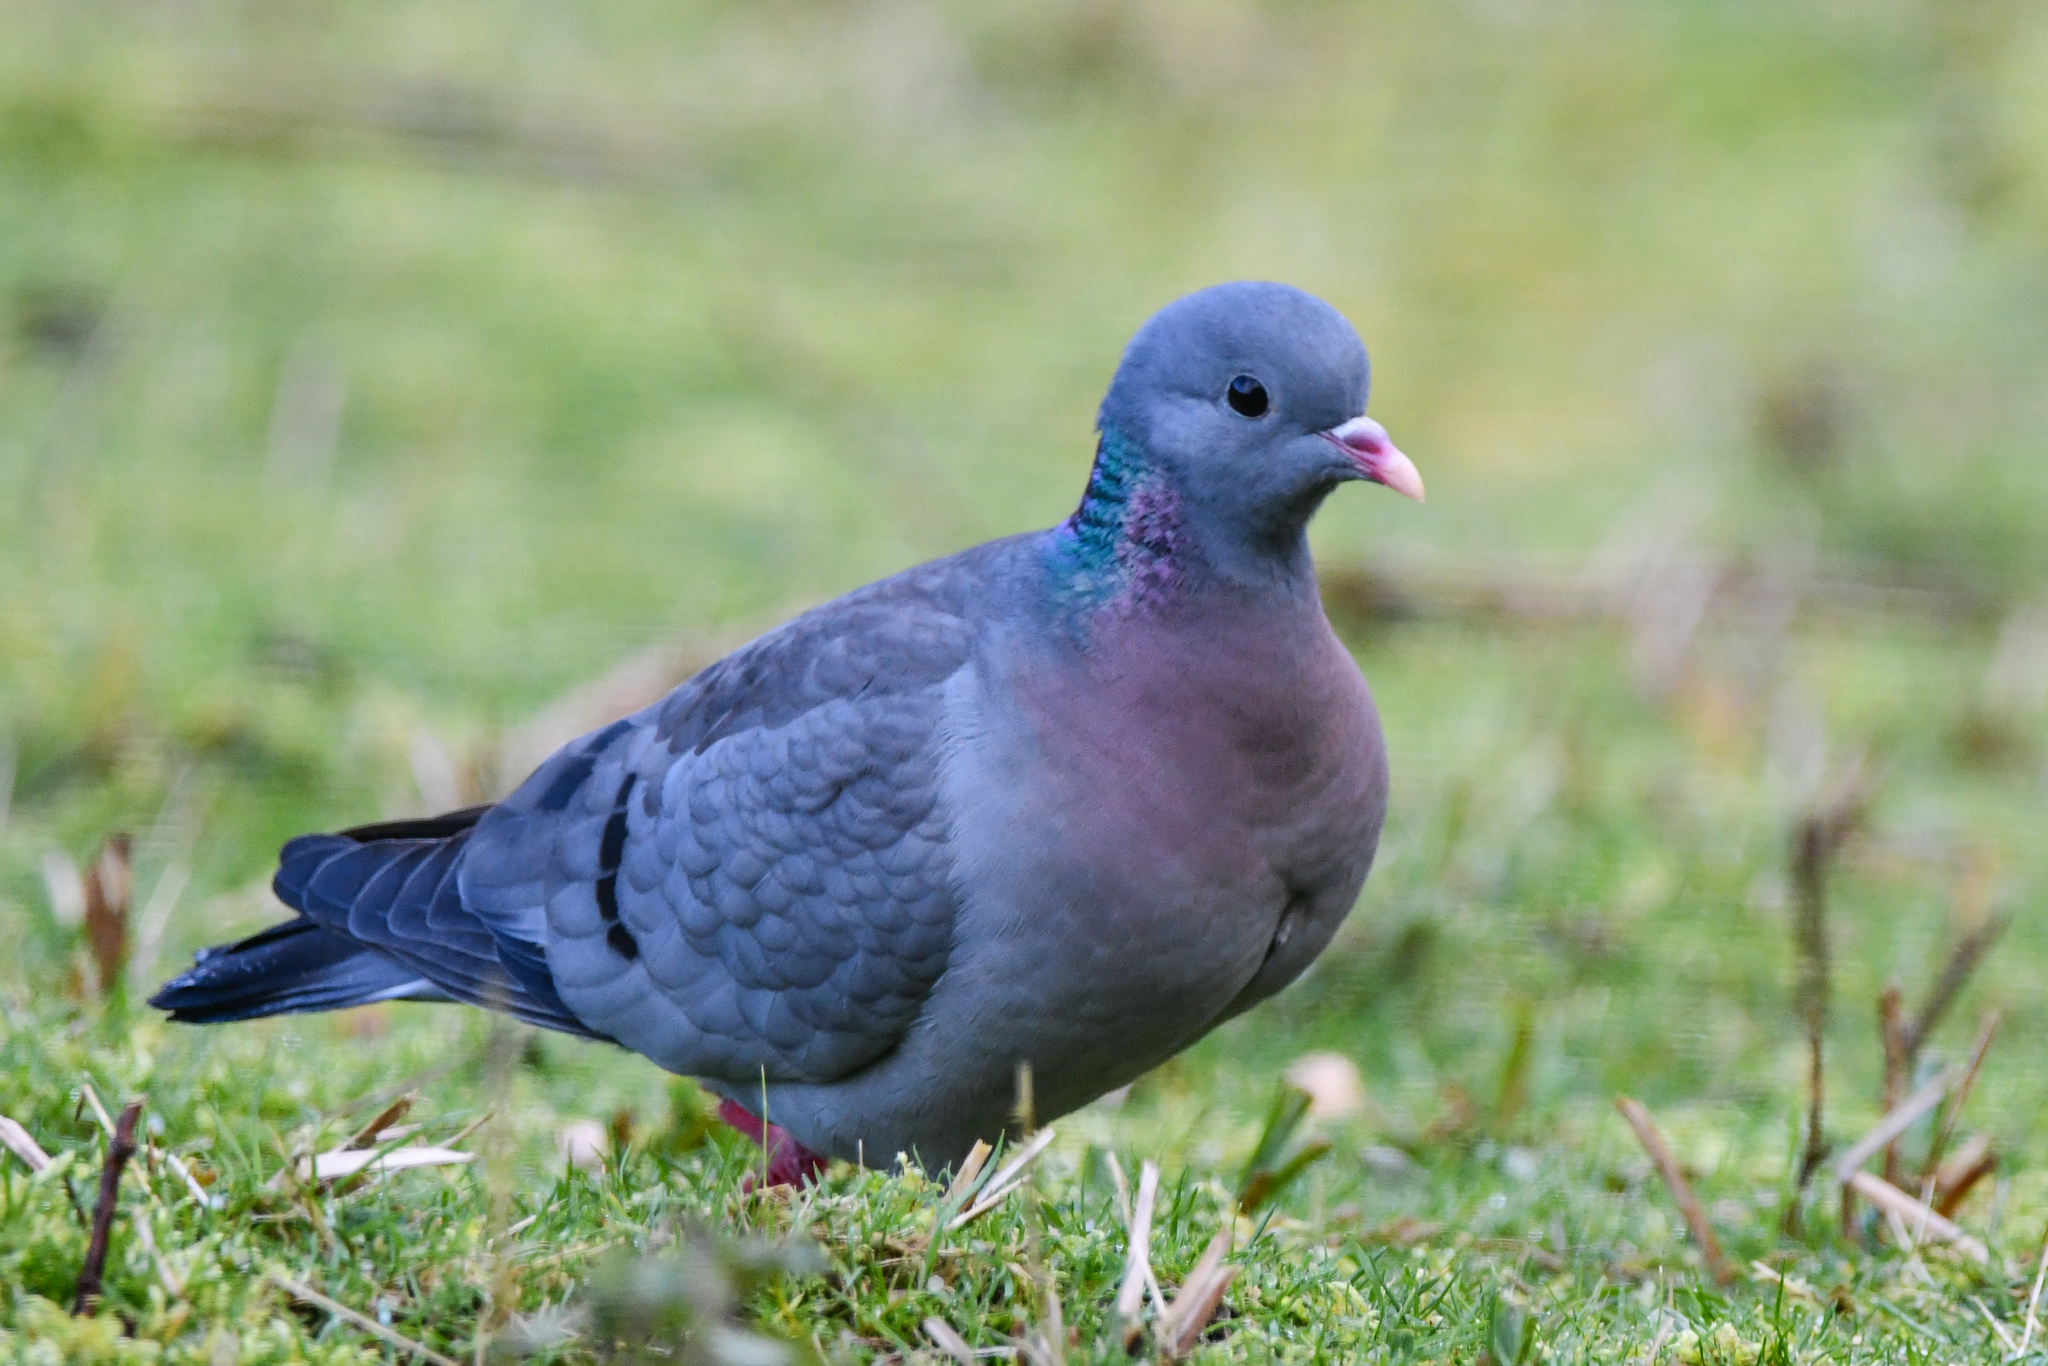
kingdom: Animalia
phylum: Chordata
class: Aves
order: Columbiformes
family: Columbidae
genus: Columba
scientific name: Columba oenas
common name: Stock dove
